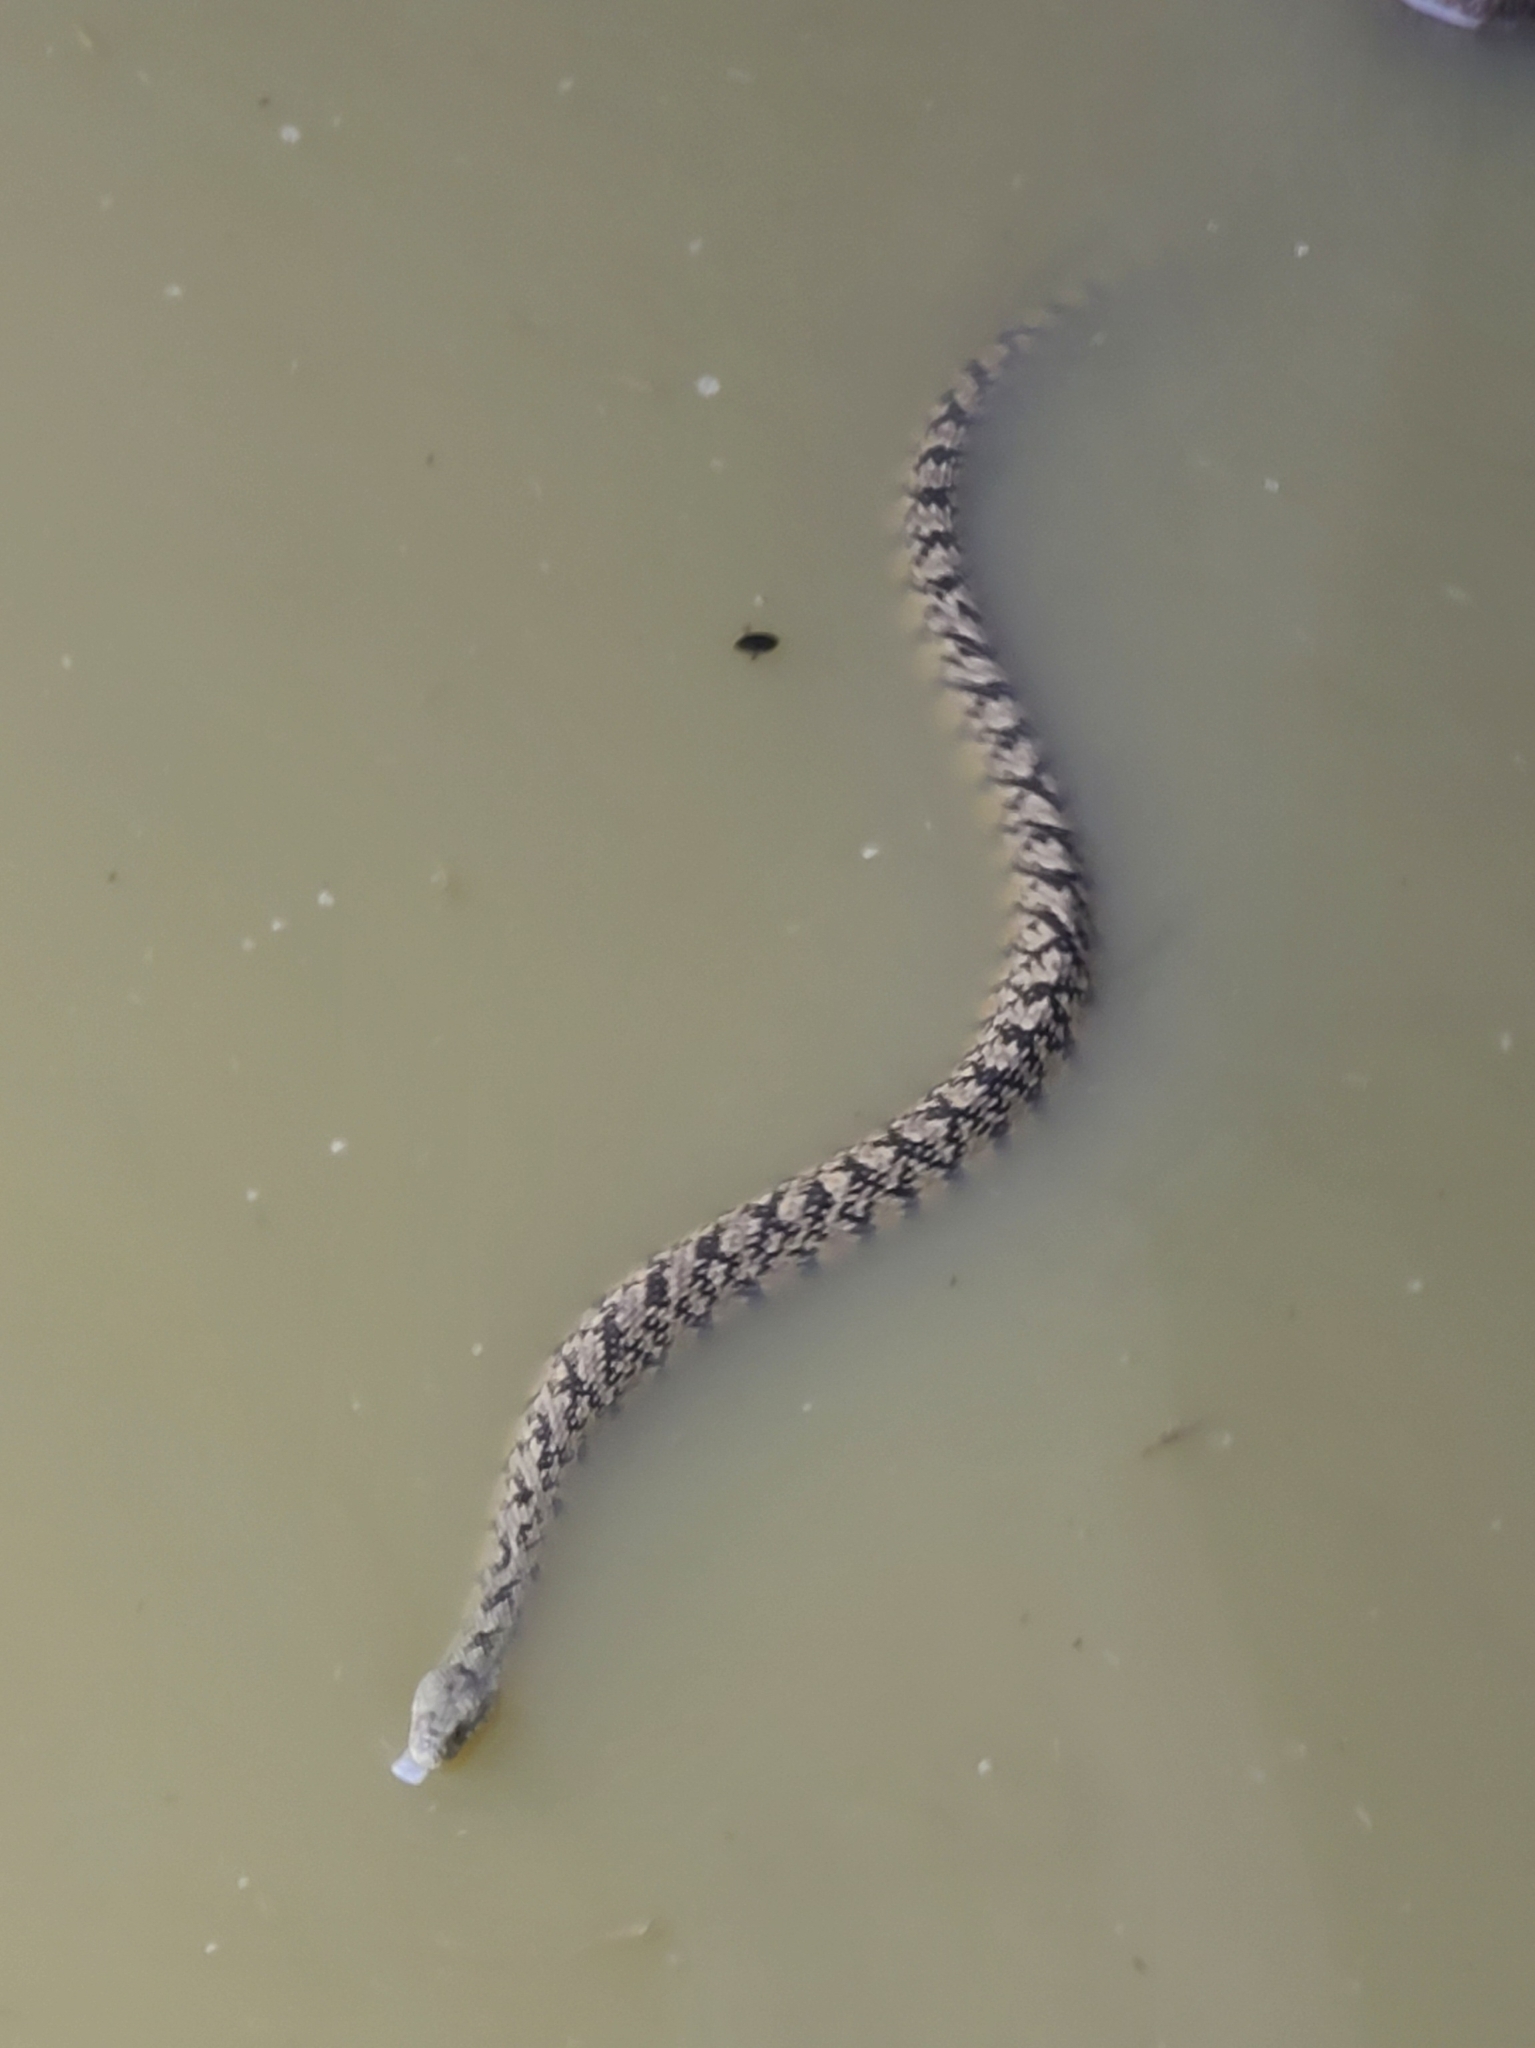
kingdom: Animalia
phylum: Chordata
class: Squamata
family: Colubridae
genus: Nerodia
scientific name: Nerodia rhombifer
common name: Diamondback water snake
